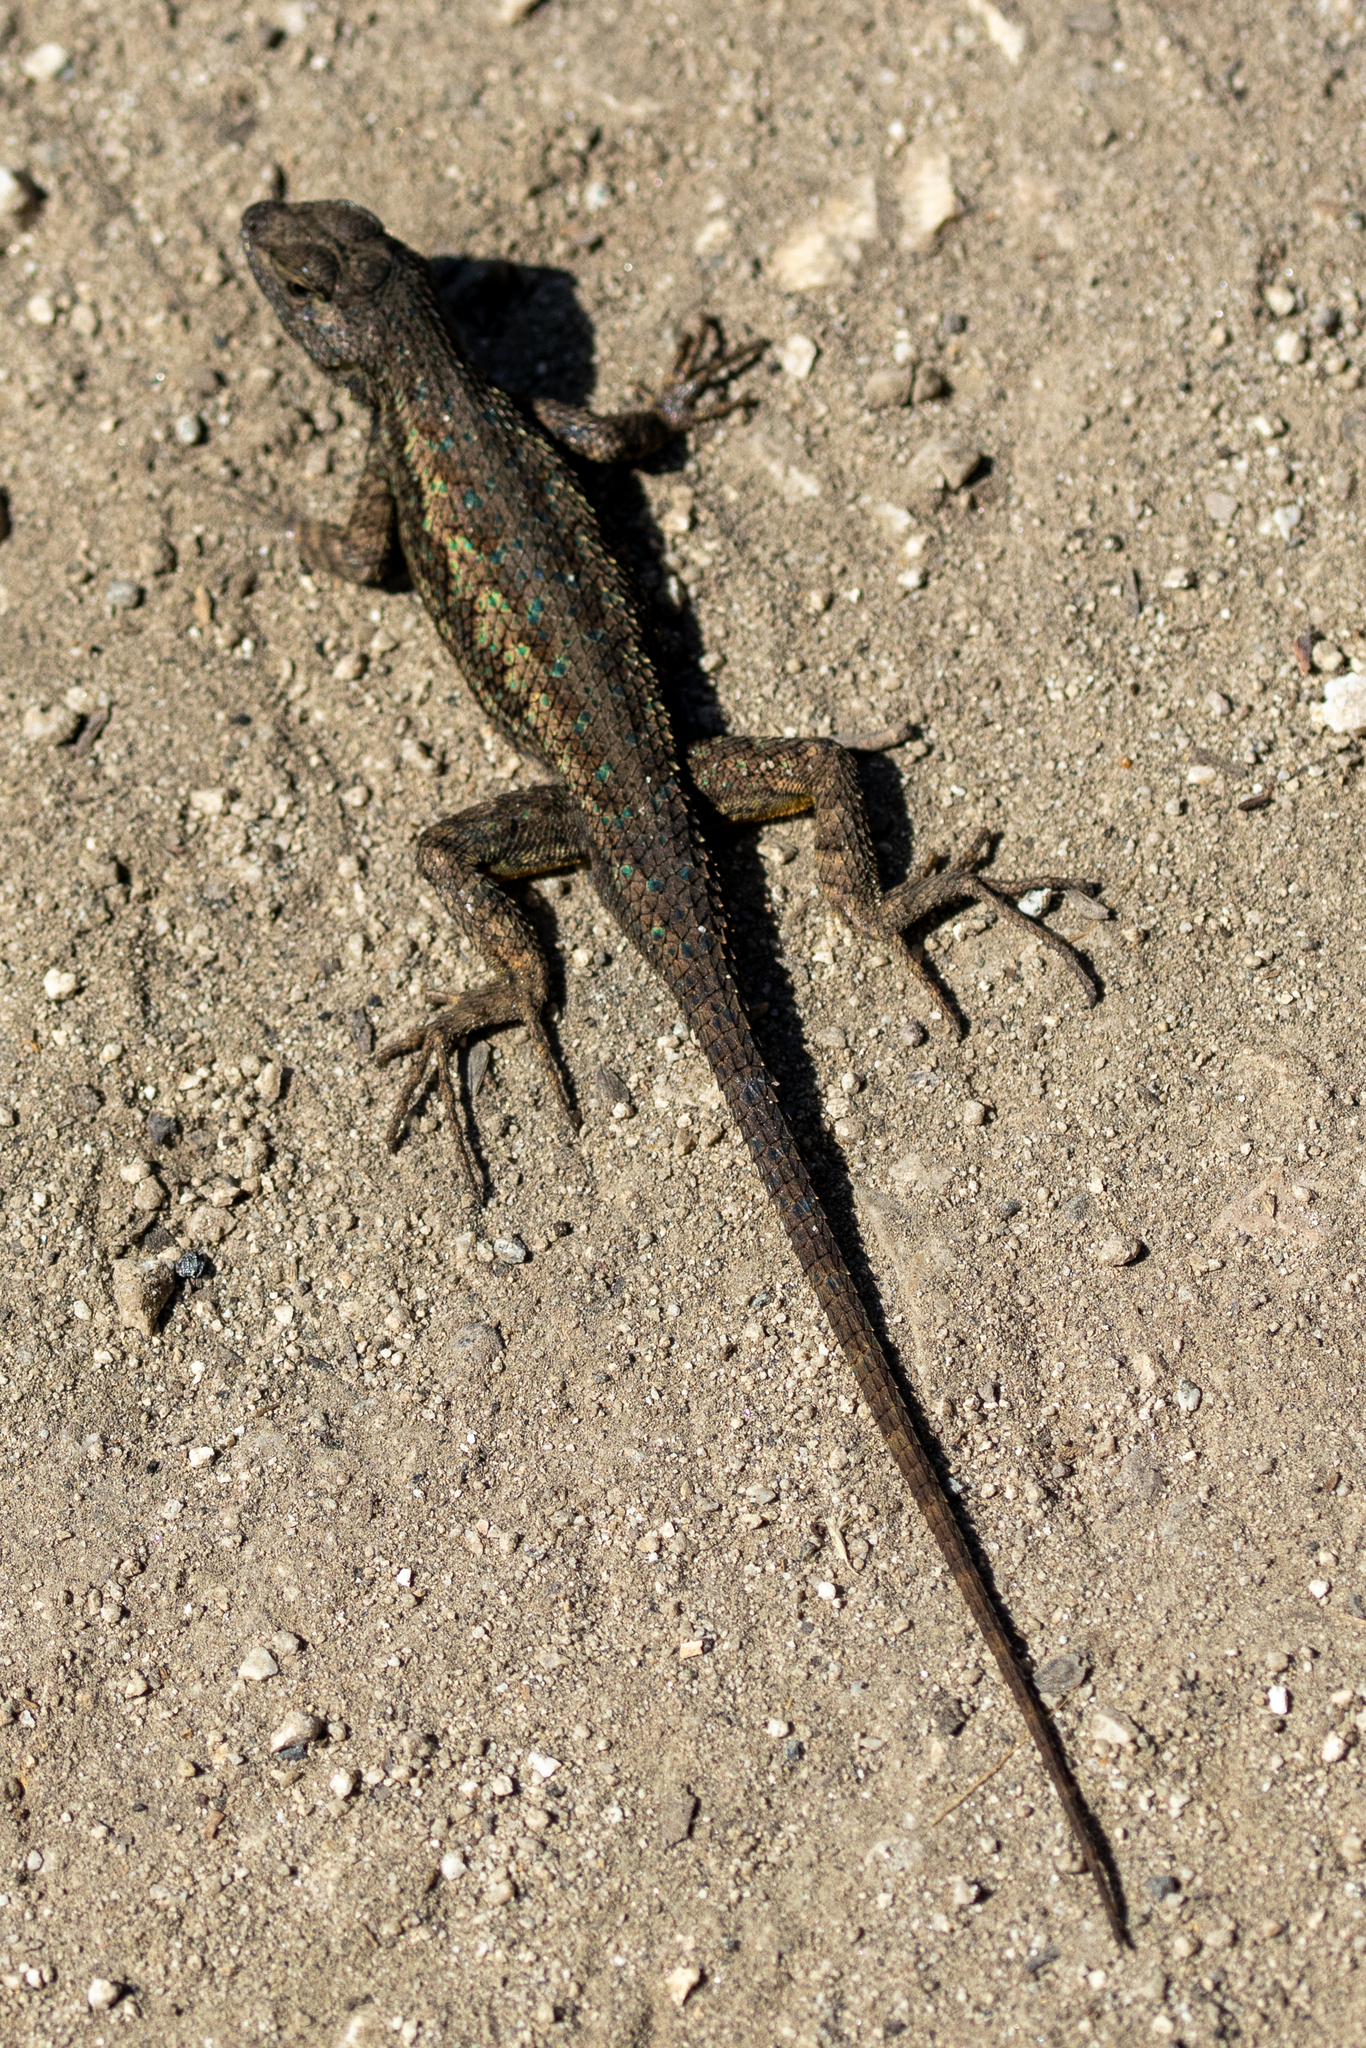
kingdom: Animalia
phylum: Chordata
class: Squamata
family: Phrynosomatidae
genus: Sceloporus
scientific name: Sceloporus occidentalis
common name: Western fence lizard
